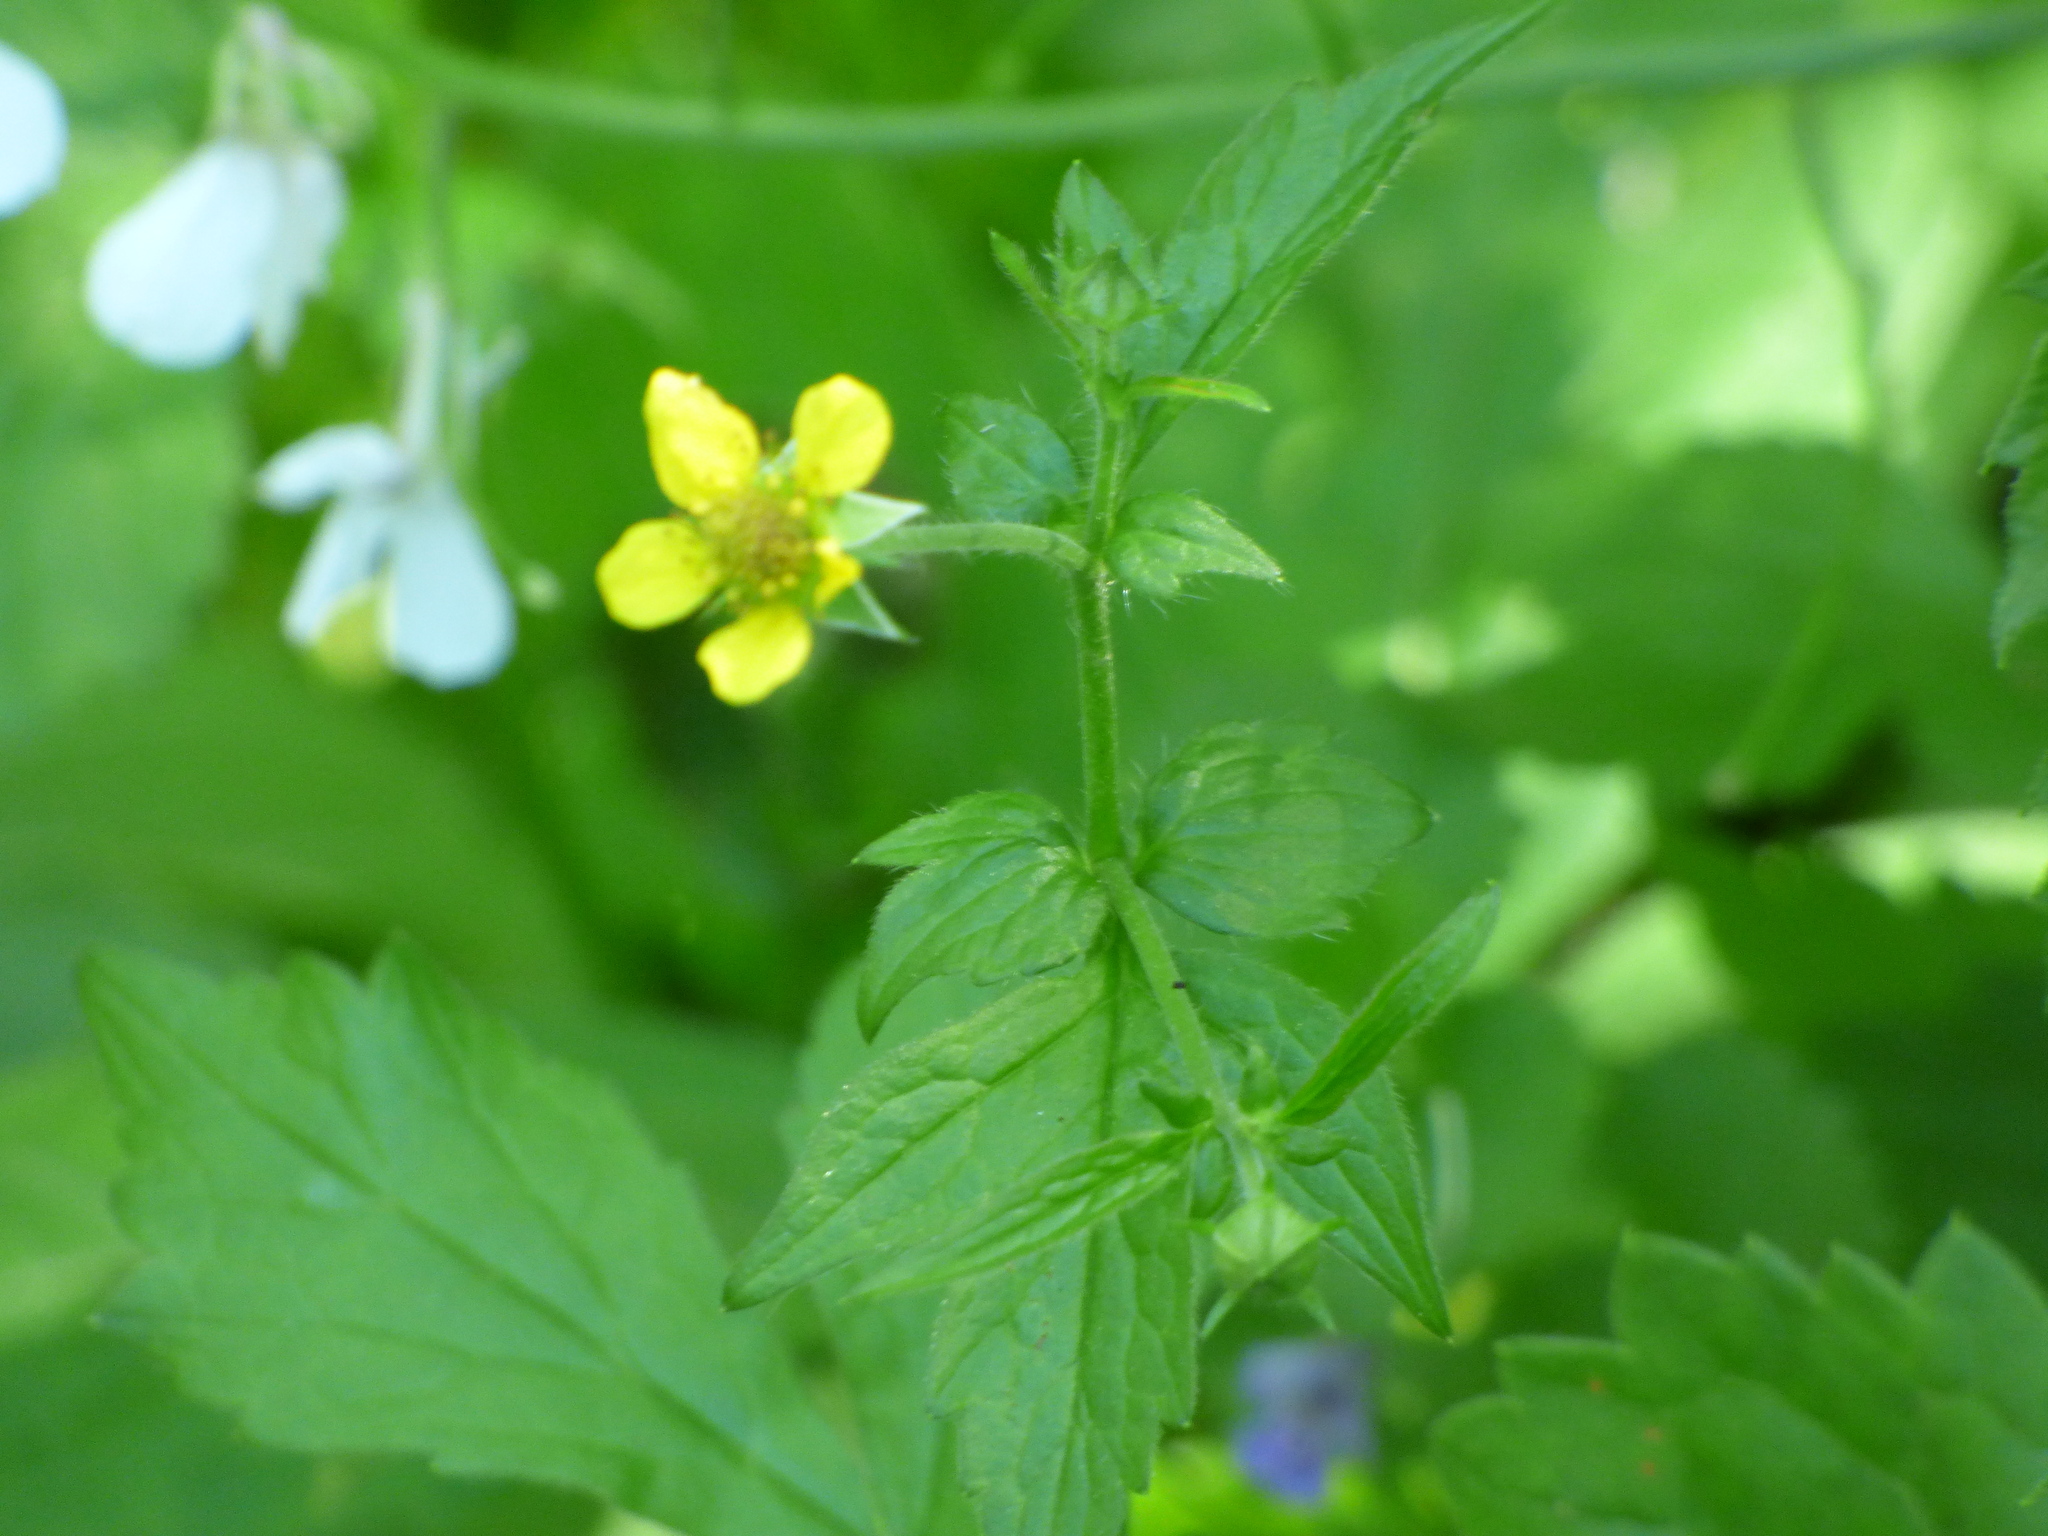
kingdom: Plantae
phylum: Tracheophyta
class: Magnoliopsida
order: Rosales
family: Rosaceae
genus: Geum
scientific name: Geum urbanum
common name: Wood avens
